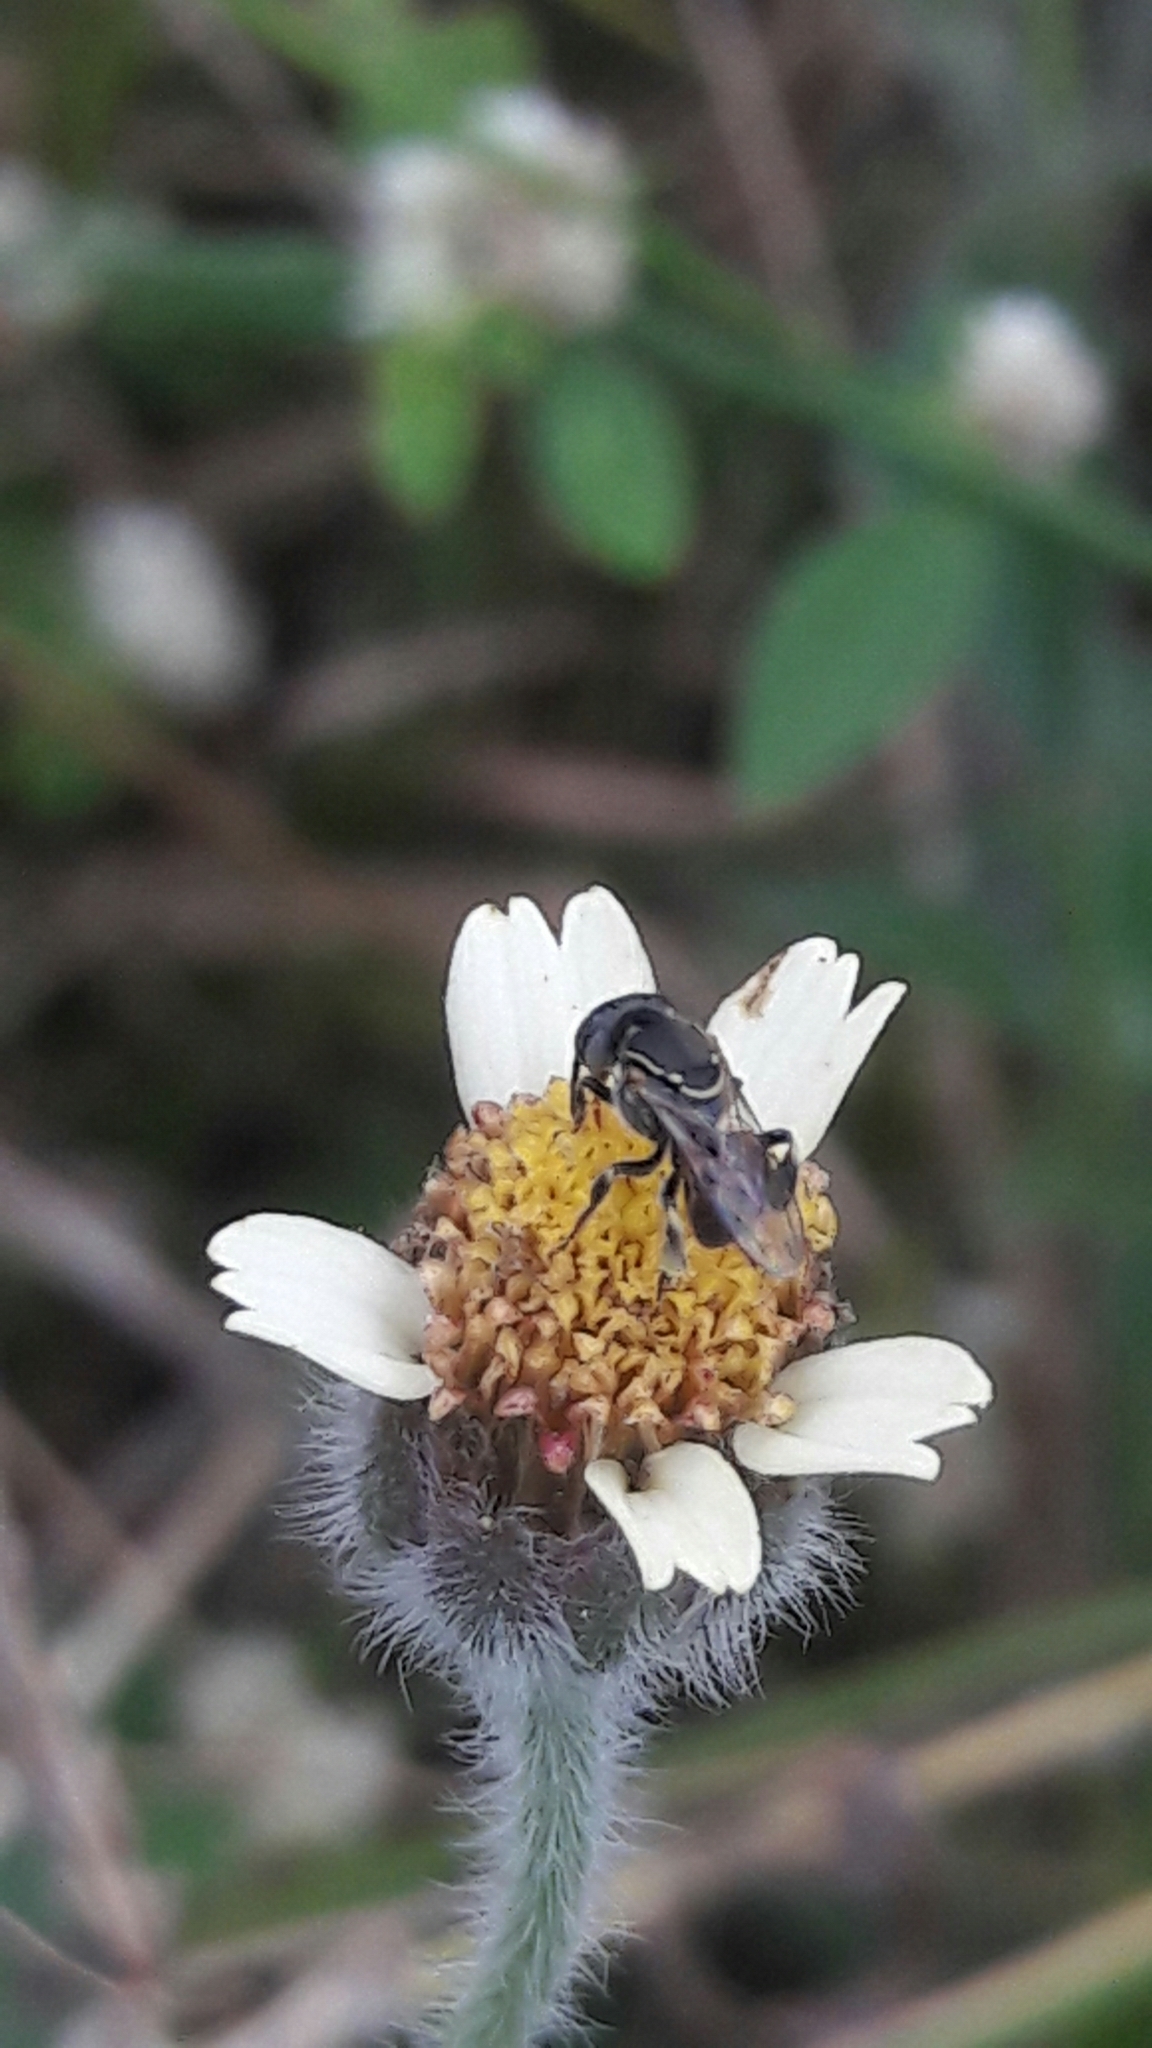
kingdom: Animalia
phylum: Arthropoda
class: Insecta
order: Hymenoptera
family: Apidae
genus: Paratrigona
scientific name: Paratrigona lineata
